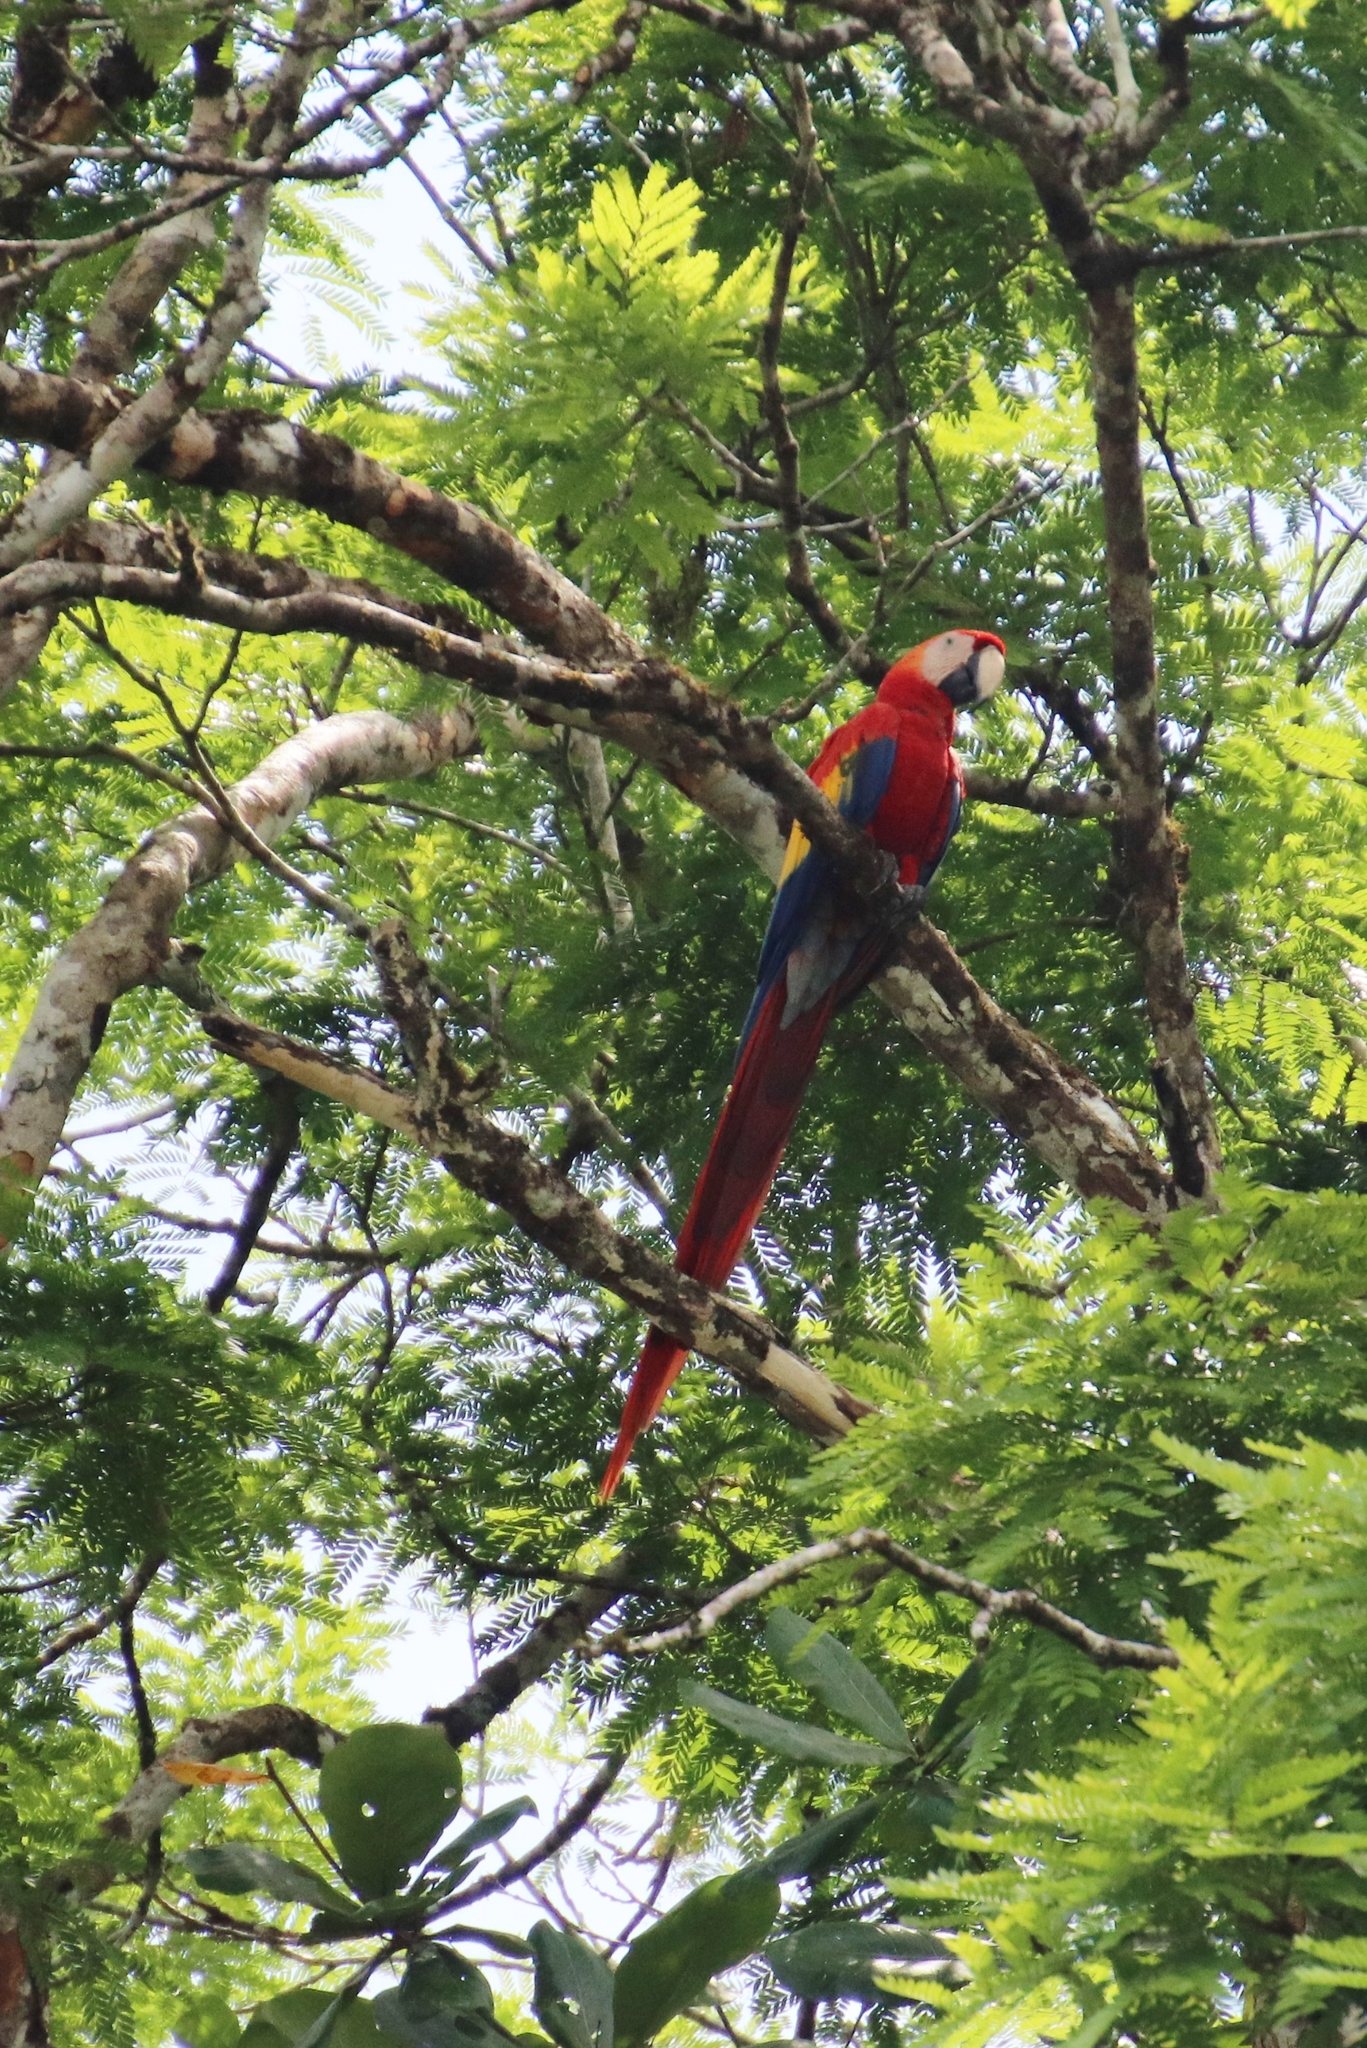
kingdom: Animalia
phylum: Chordata
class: Aves
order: Psittaciformes
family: Psittacidae
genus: Ara
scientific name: Ara macao
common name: Scarlet macaw
